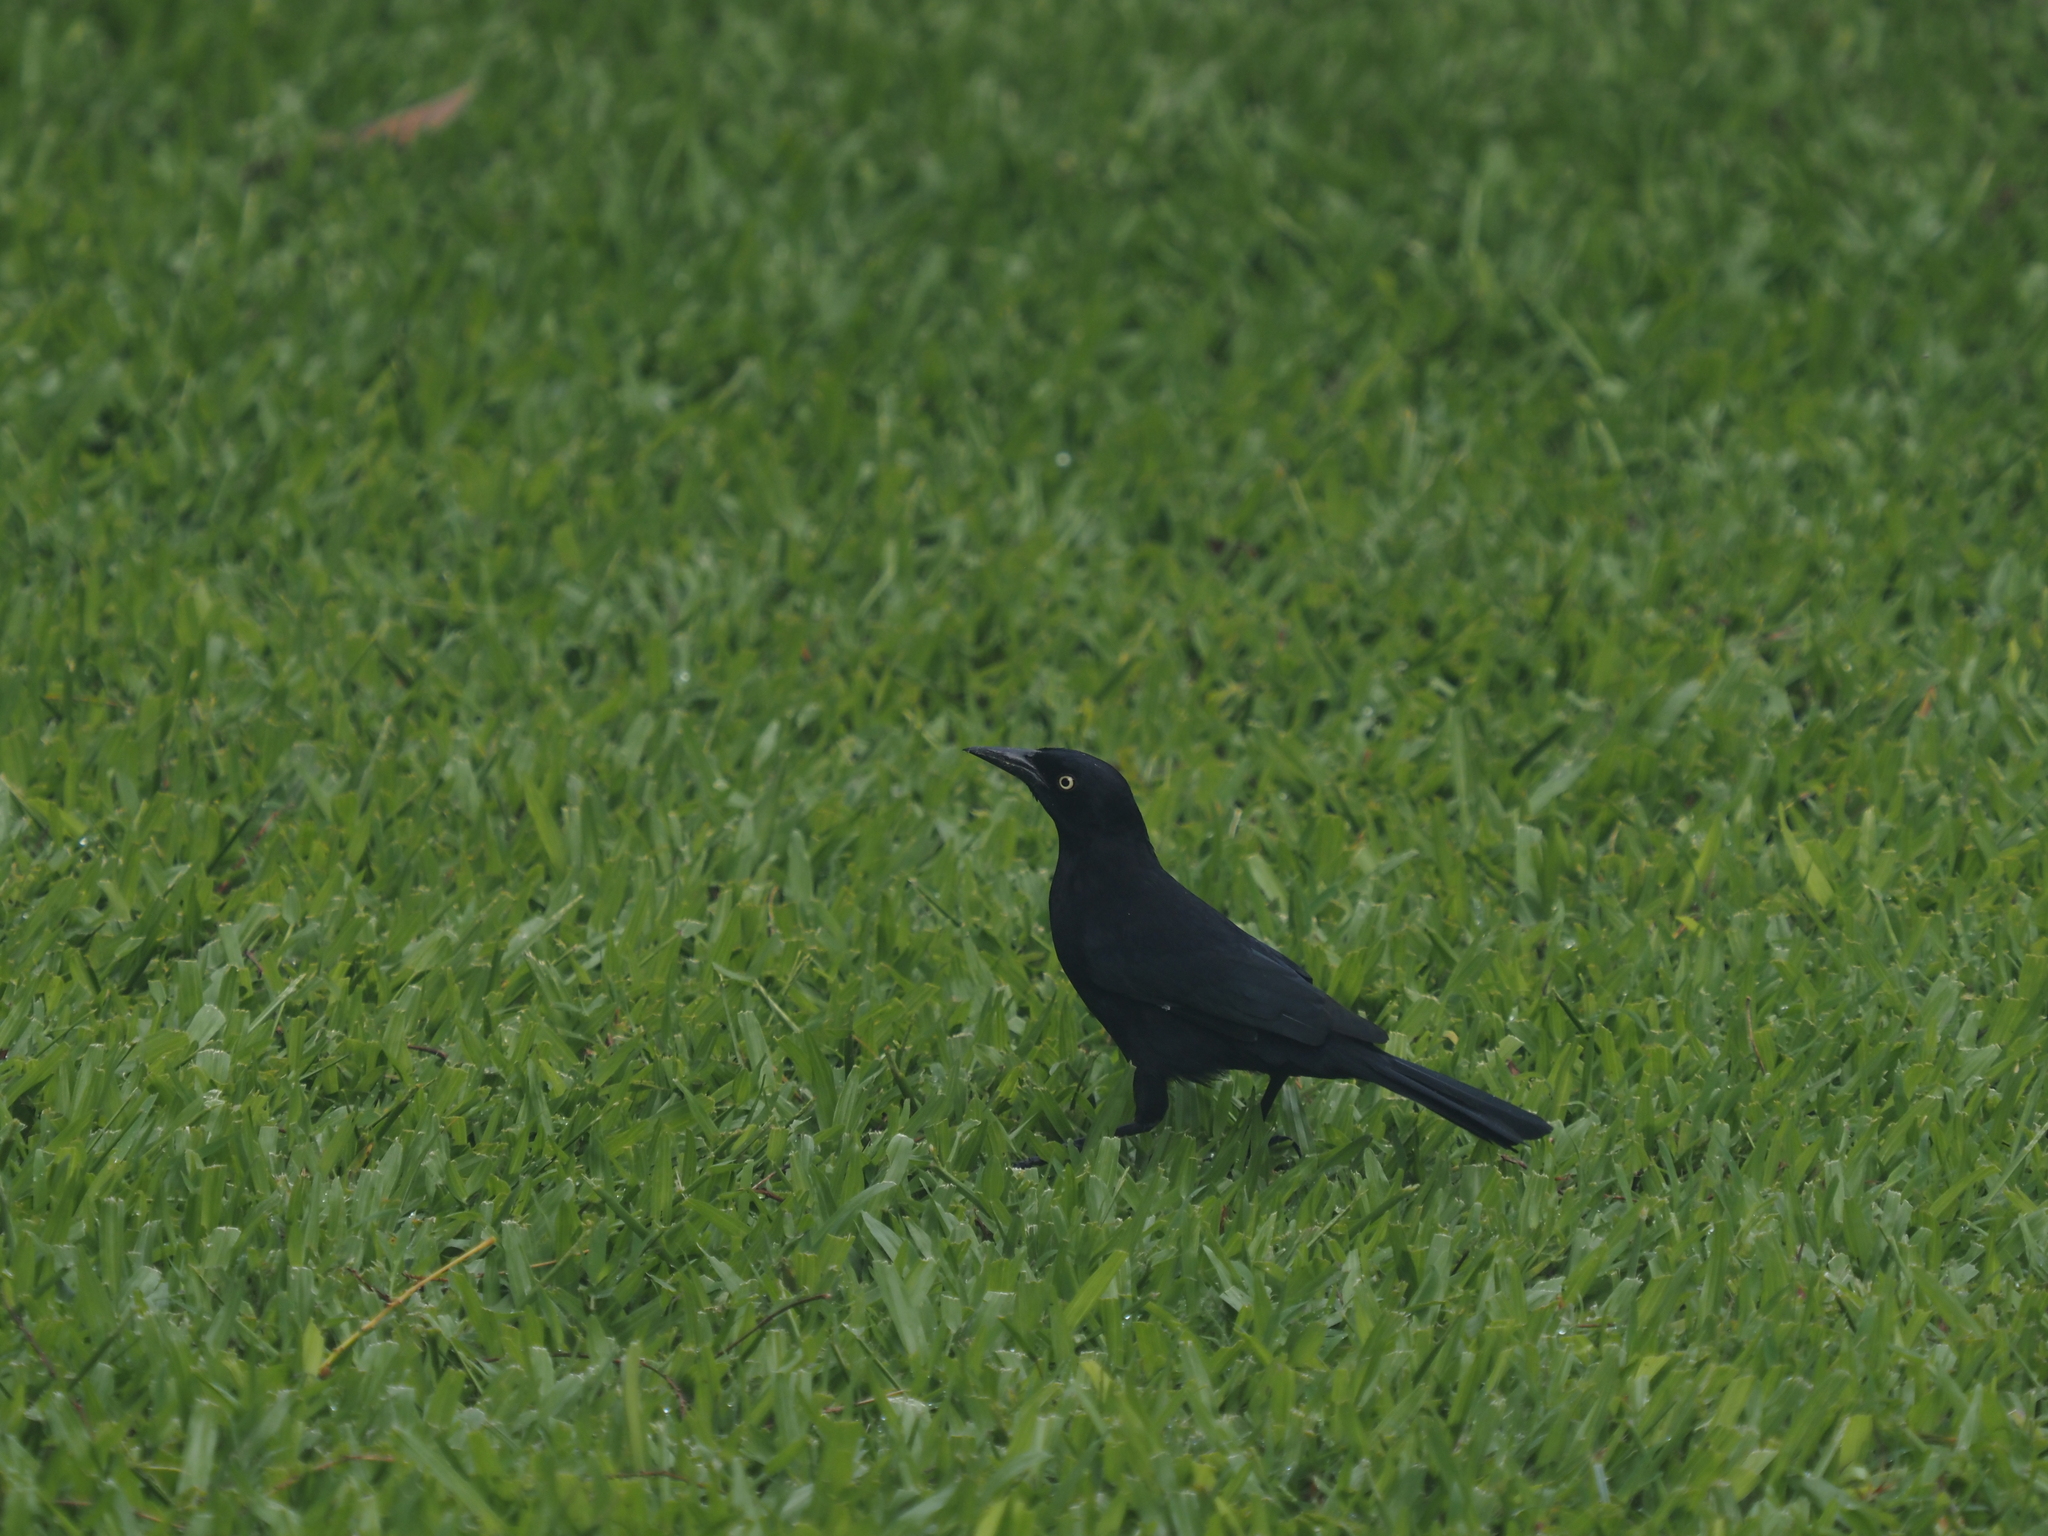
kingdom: Animalia
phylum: Chordata
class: Aves
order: Passeriformes
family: Icteridae
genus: Quiscalus
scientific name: Quiscalus lugubris
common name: Carib grackle
